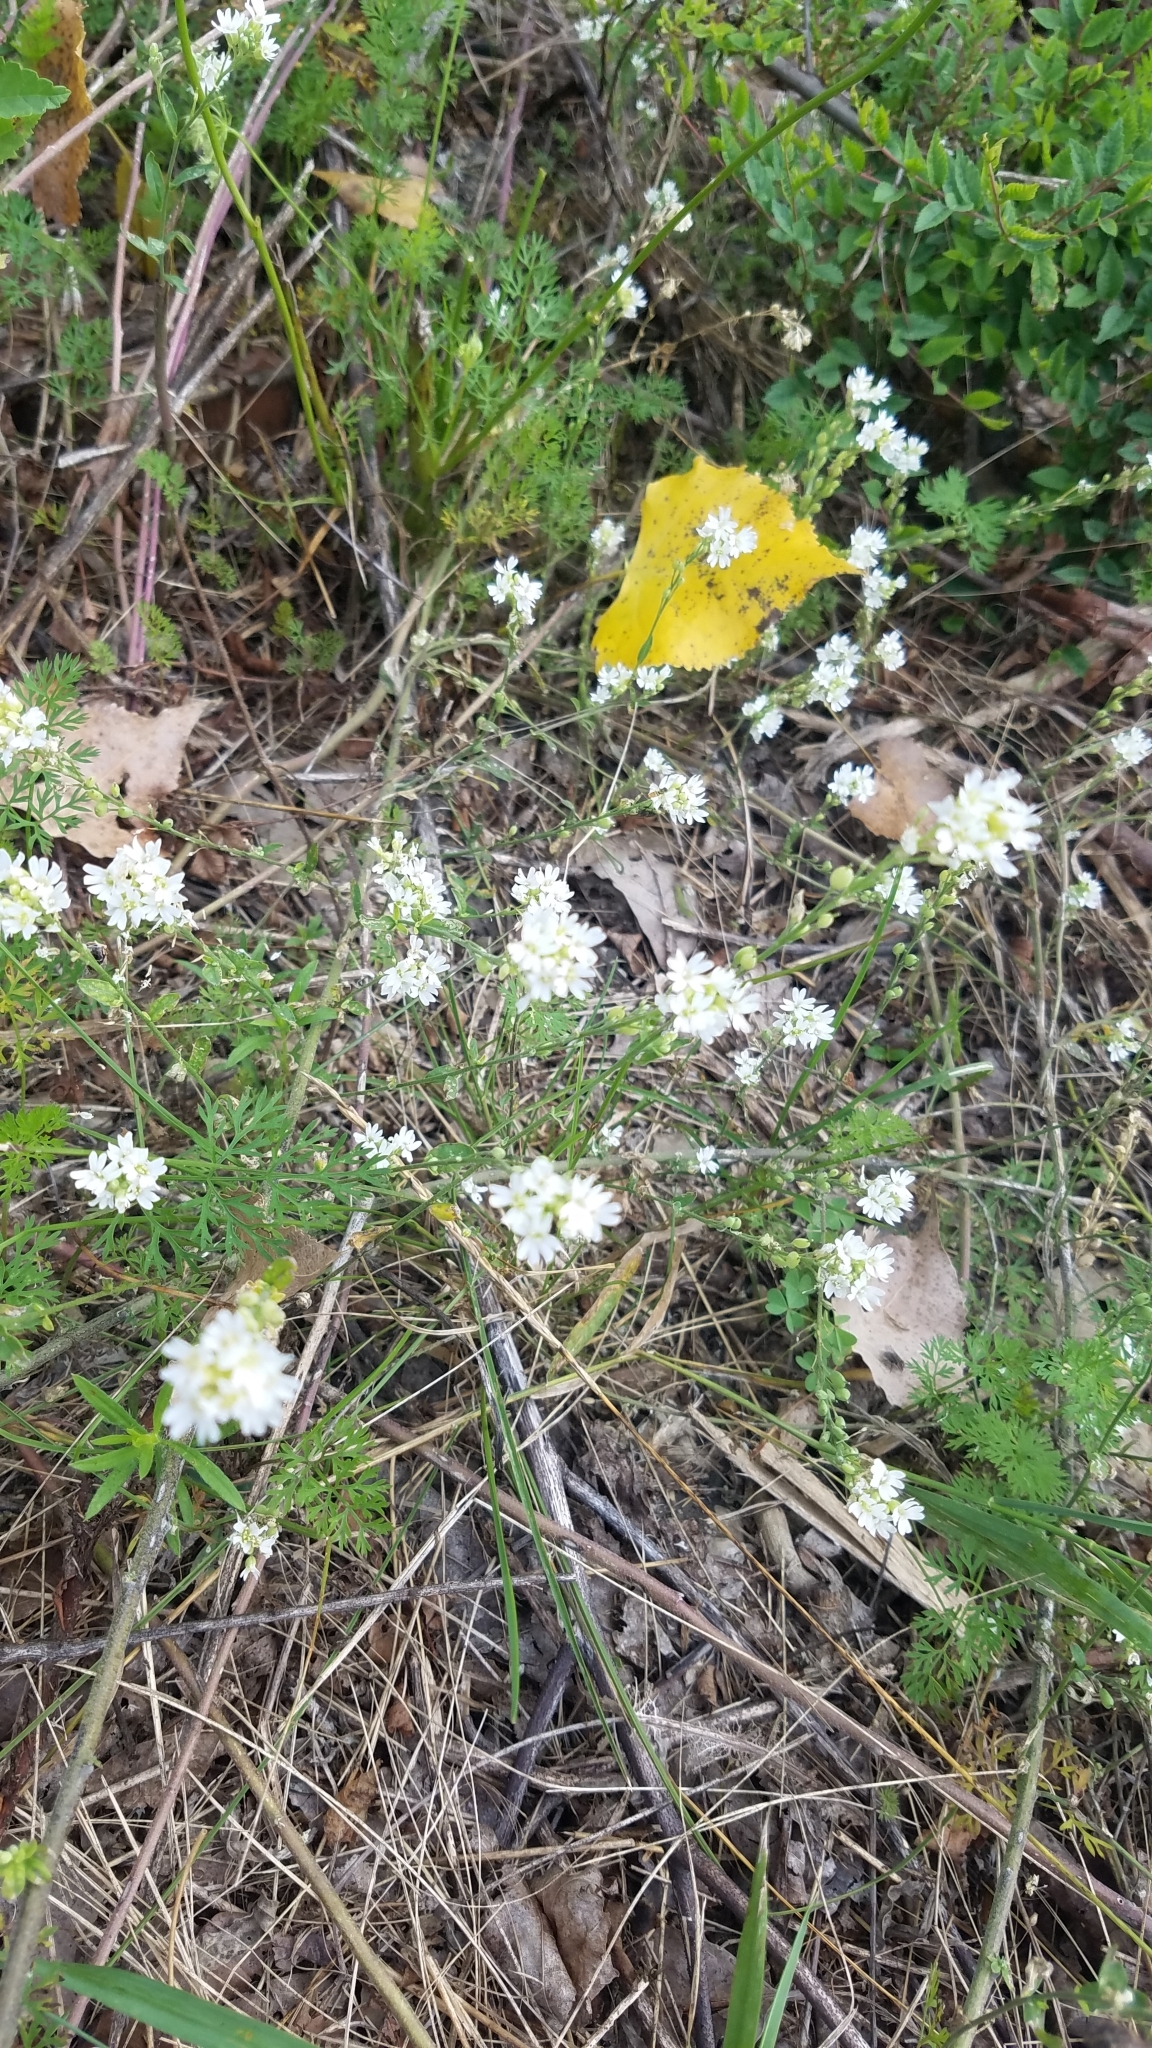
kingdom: Plantae
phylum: Tracheophyta
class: Magnoliopsida
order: Brassicales
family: Brassicaceae
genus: Berteroa
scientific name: Berteroa incana
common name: Hoary alison
